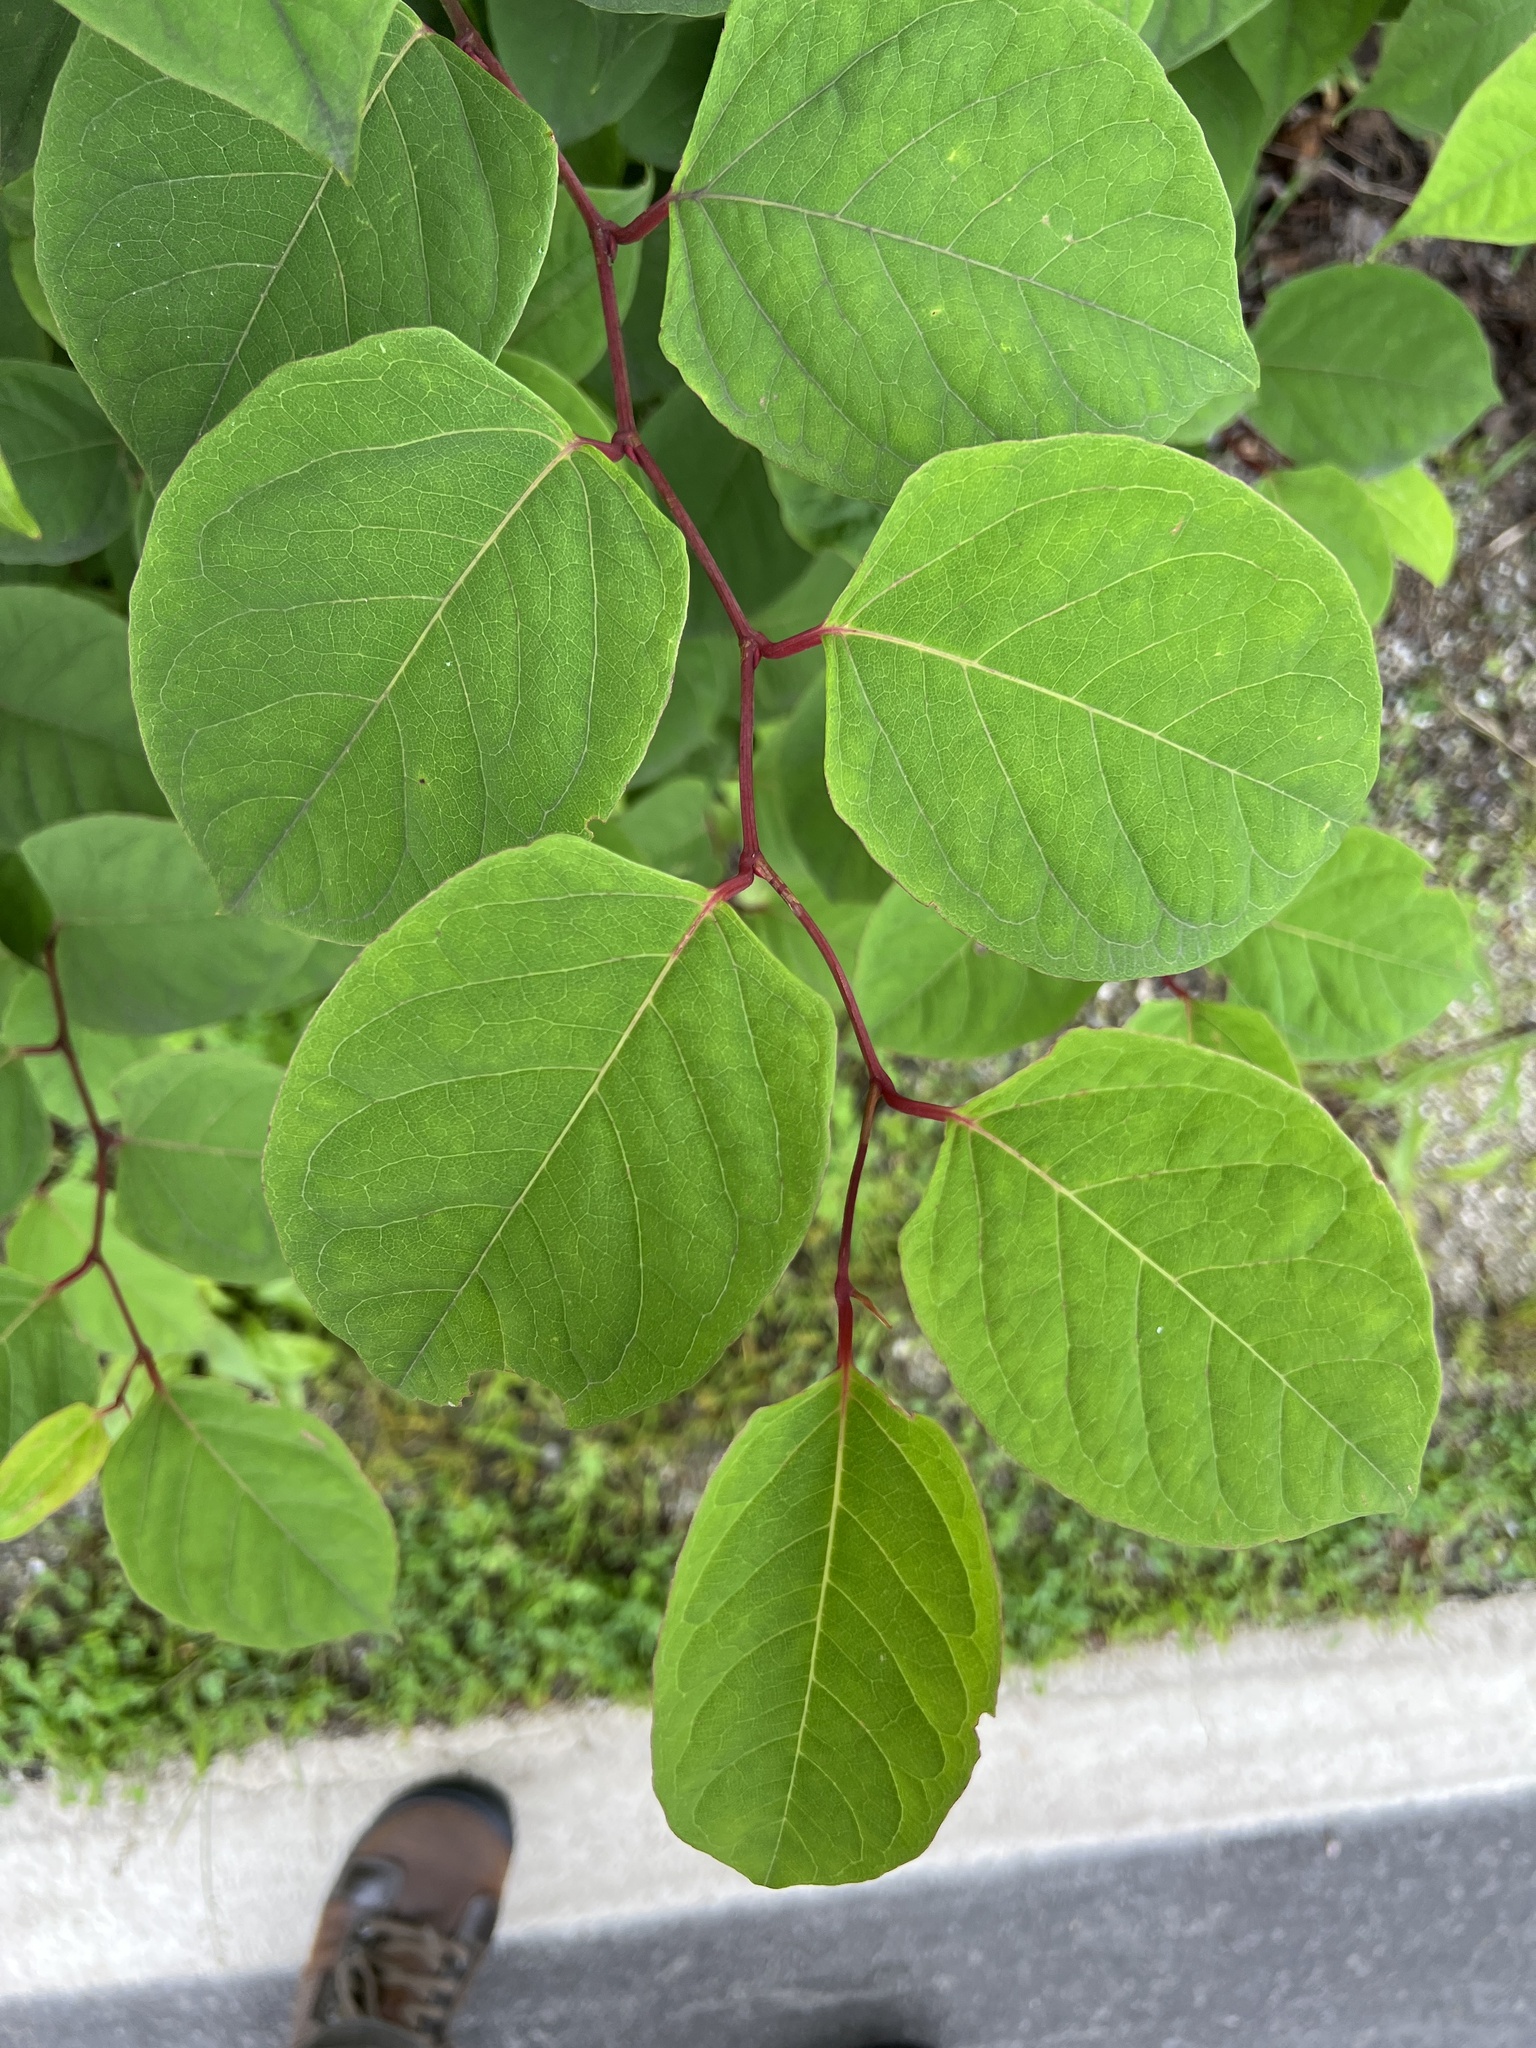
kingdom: Plantae
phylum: Tracheophyta
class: Magnoliopsida
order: Caryophyllales
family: Polygonaceae
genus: Reynoutria
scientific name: Reynoutria
